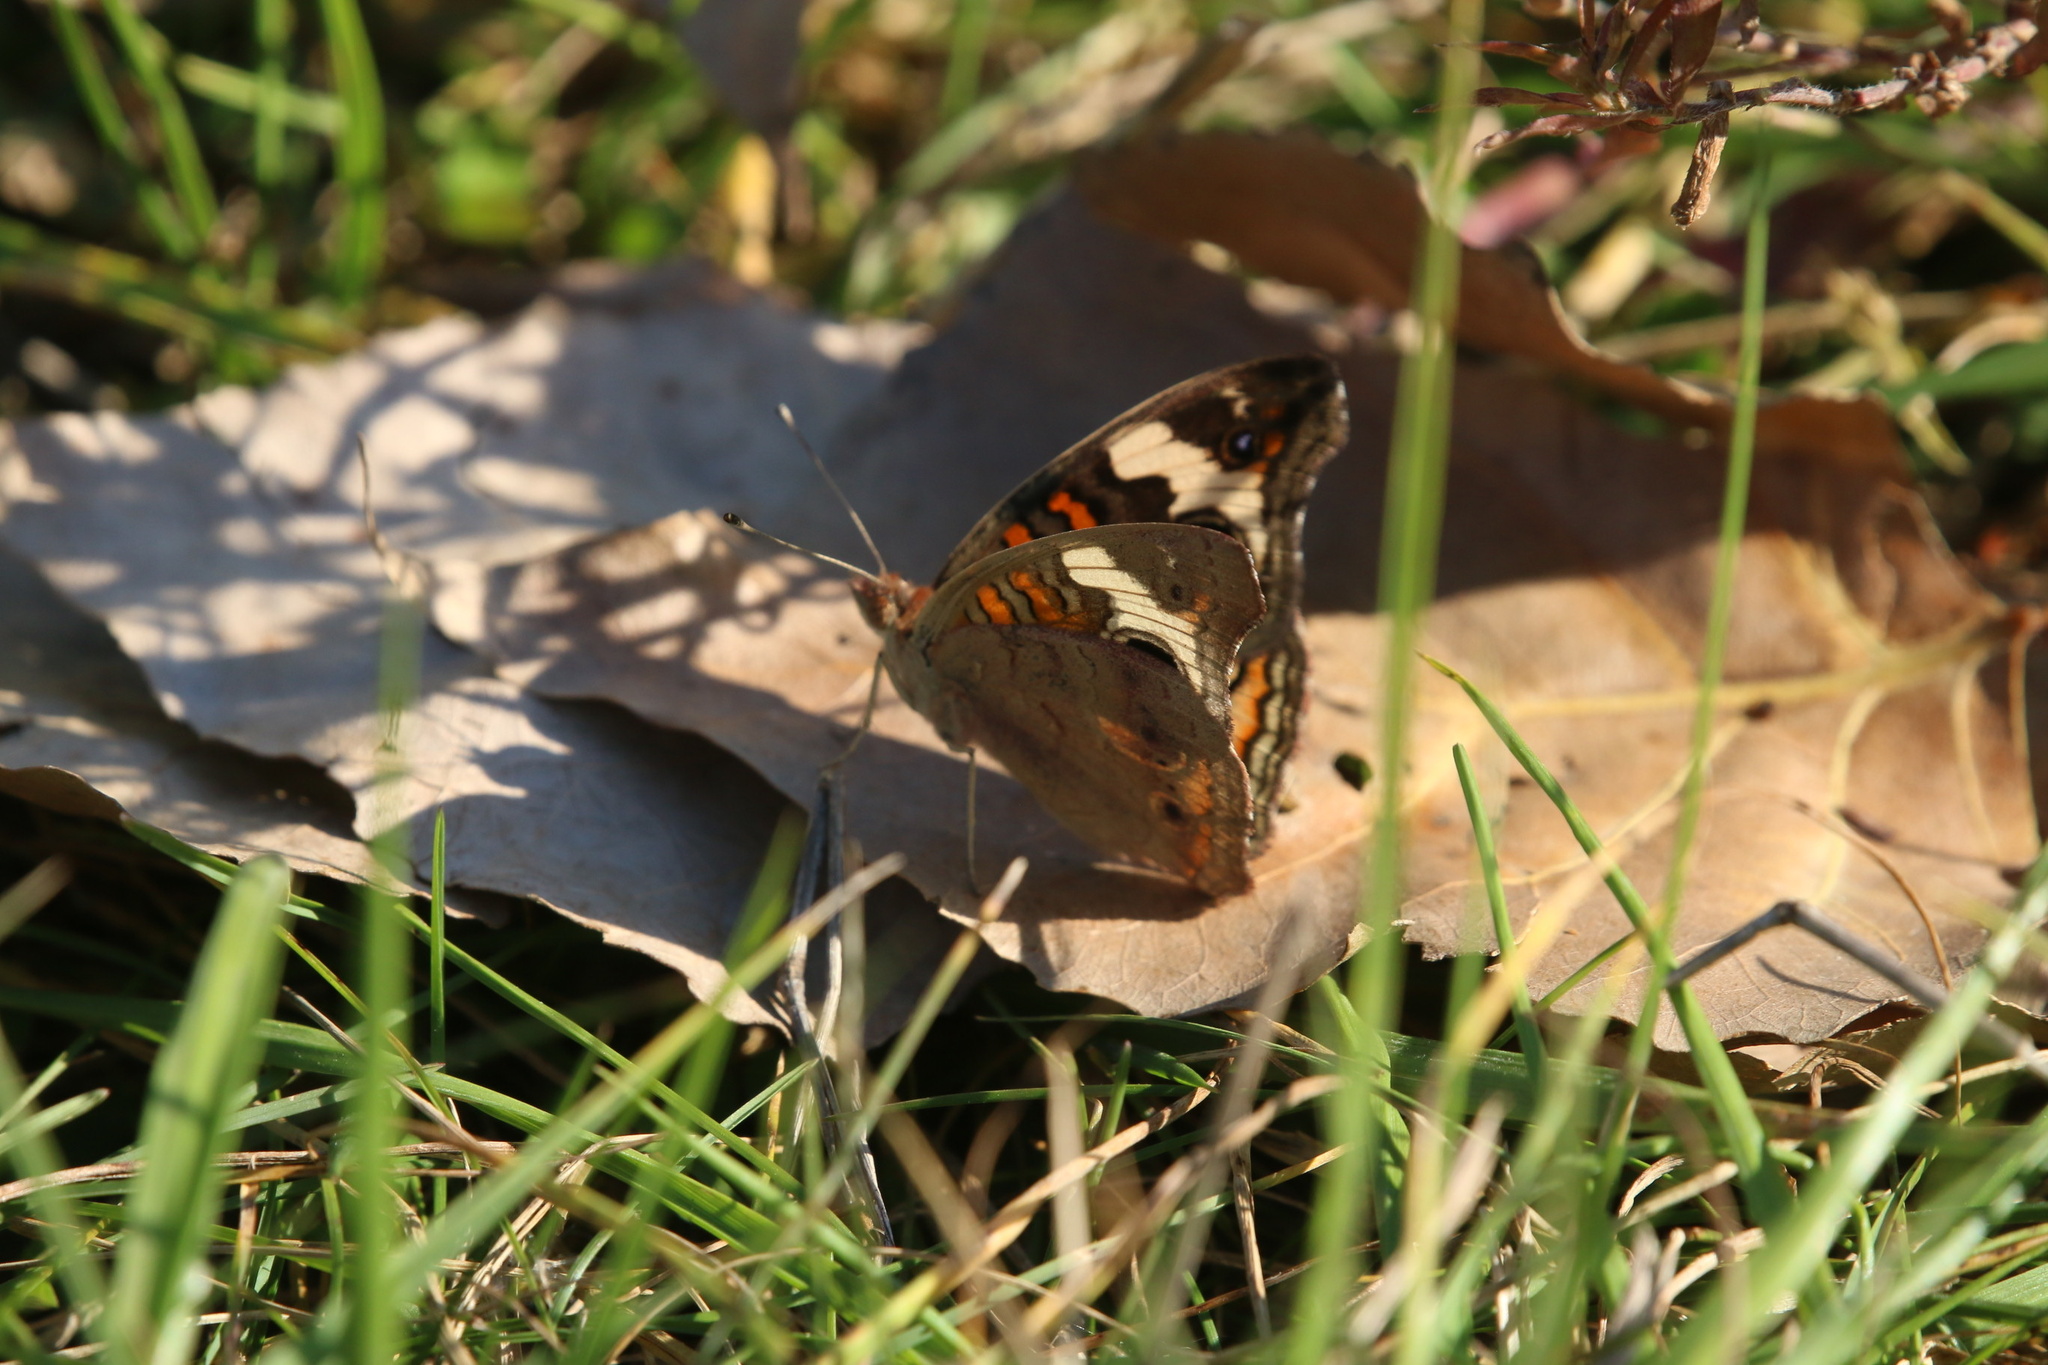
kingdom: Animalia
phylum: Arthropoda
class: Insecta
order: Lepidoptera
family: Nymphalidae
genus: Junonia
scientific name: Junonia coenia
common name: Common buckeye
